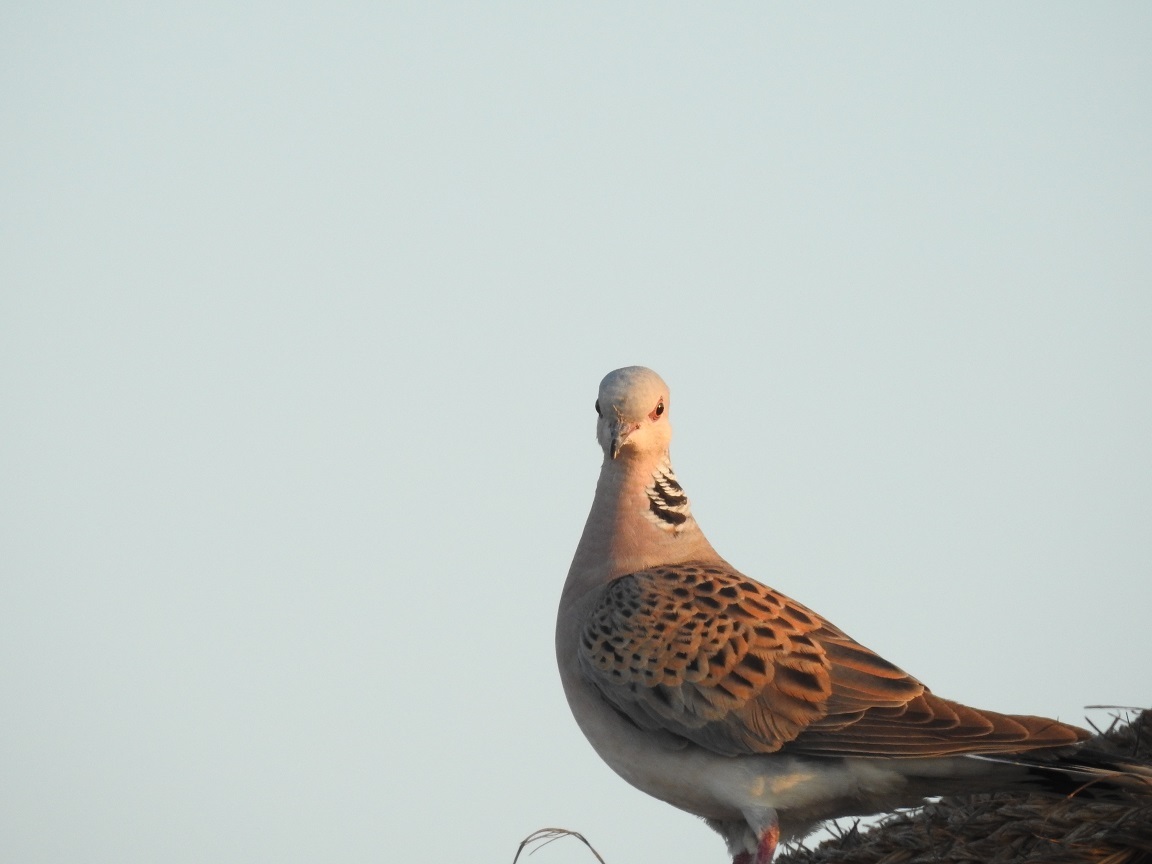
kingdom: Animalia
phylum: Chordata
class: Aves
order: Columbiformes
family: Columbidae
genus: Streptopelia
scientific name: Streptopelia turtur
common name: European turtle dove
